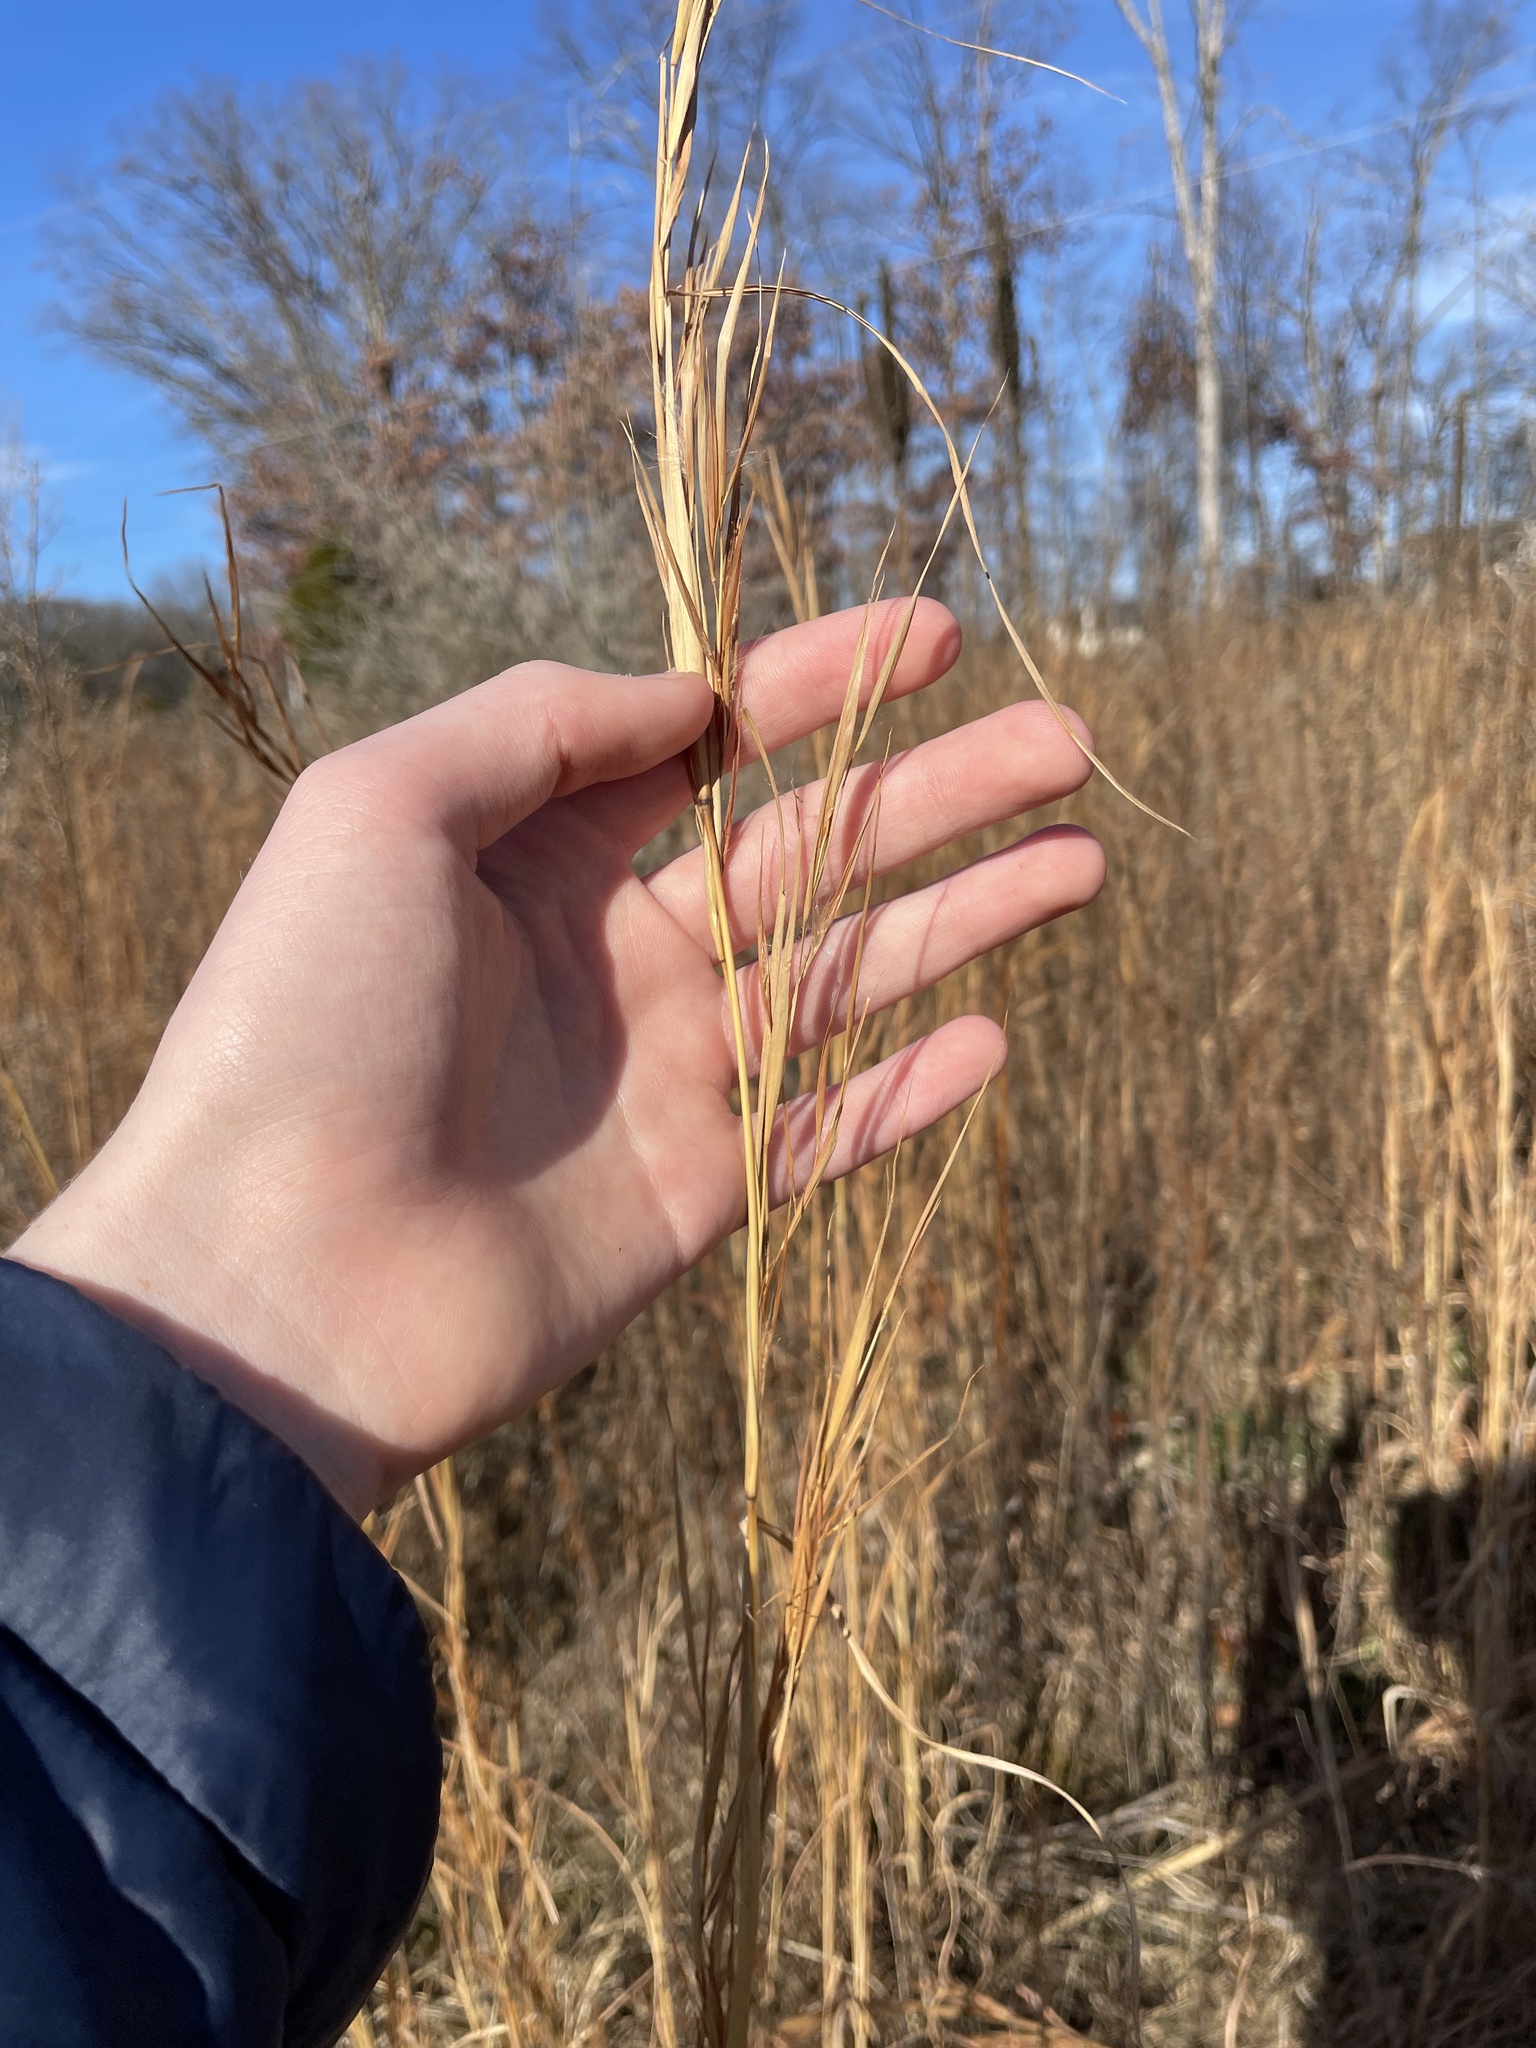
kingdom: Plantae
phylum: Tracheophyta
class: Liliopsida
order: Poales
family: Poaceae
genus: Andropogon
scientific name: Andropogon virginicus
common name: Broomsedge bluestem
